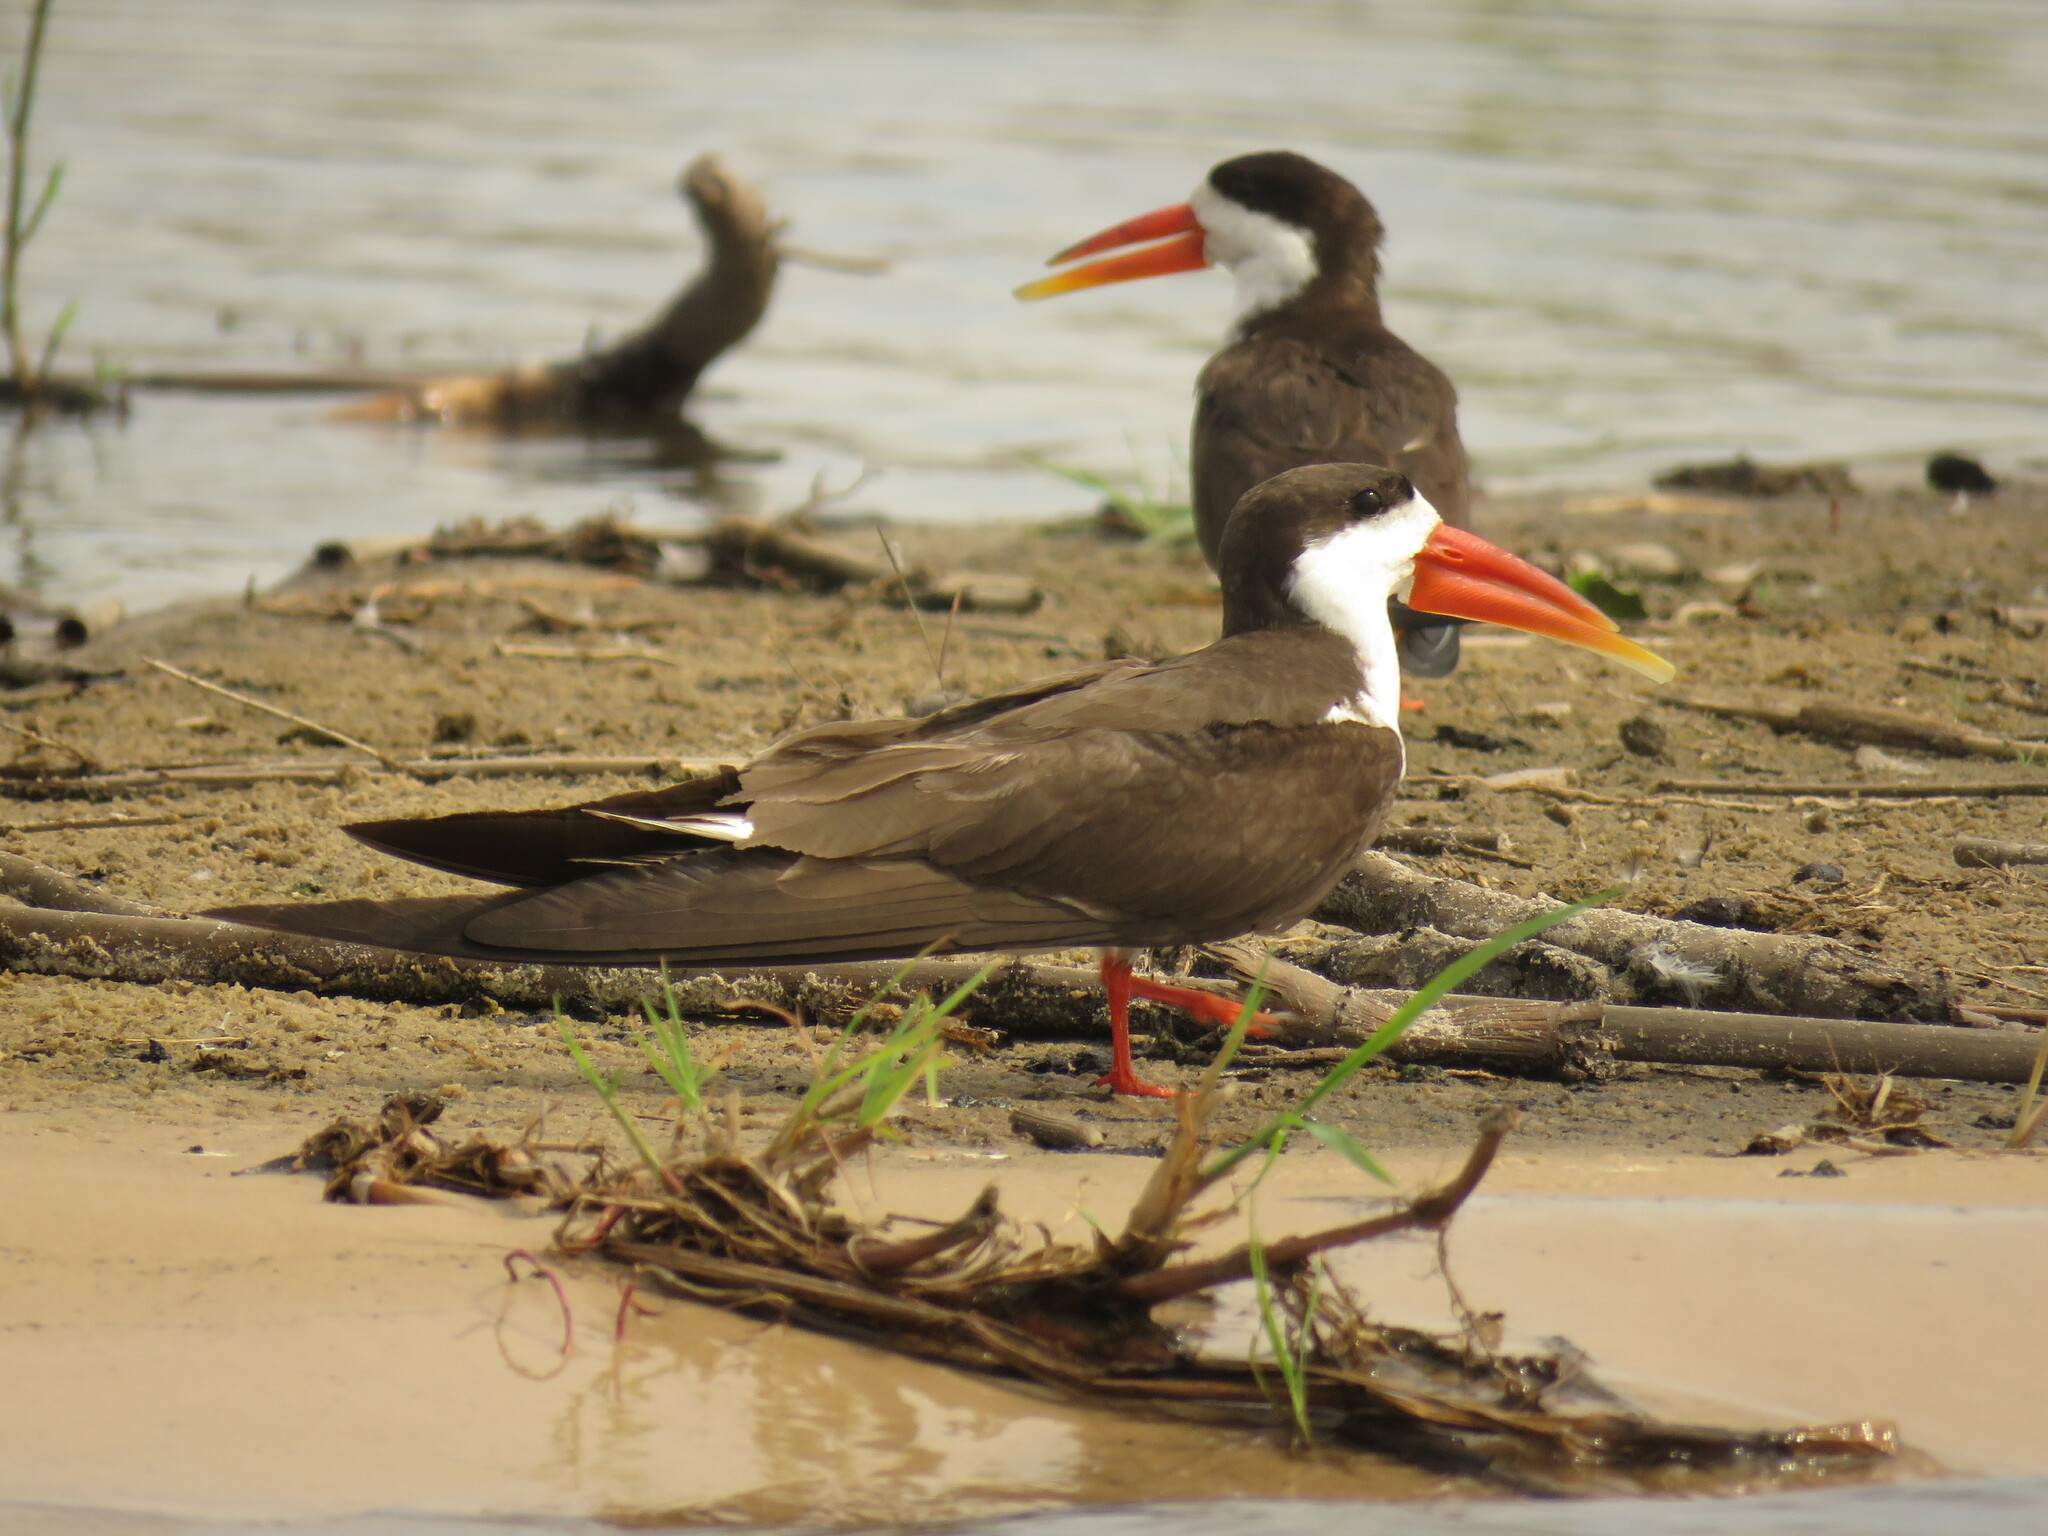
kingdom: Animalia
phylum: Chordata
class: Aves
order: Charadriiformes
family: Laridae
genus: Rynchops
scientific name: Rynchops flavirostris
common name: African skimmer
